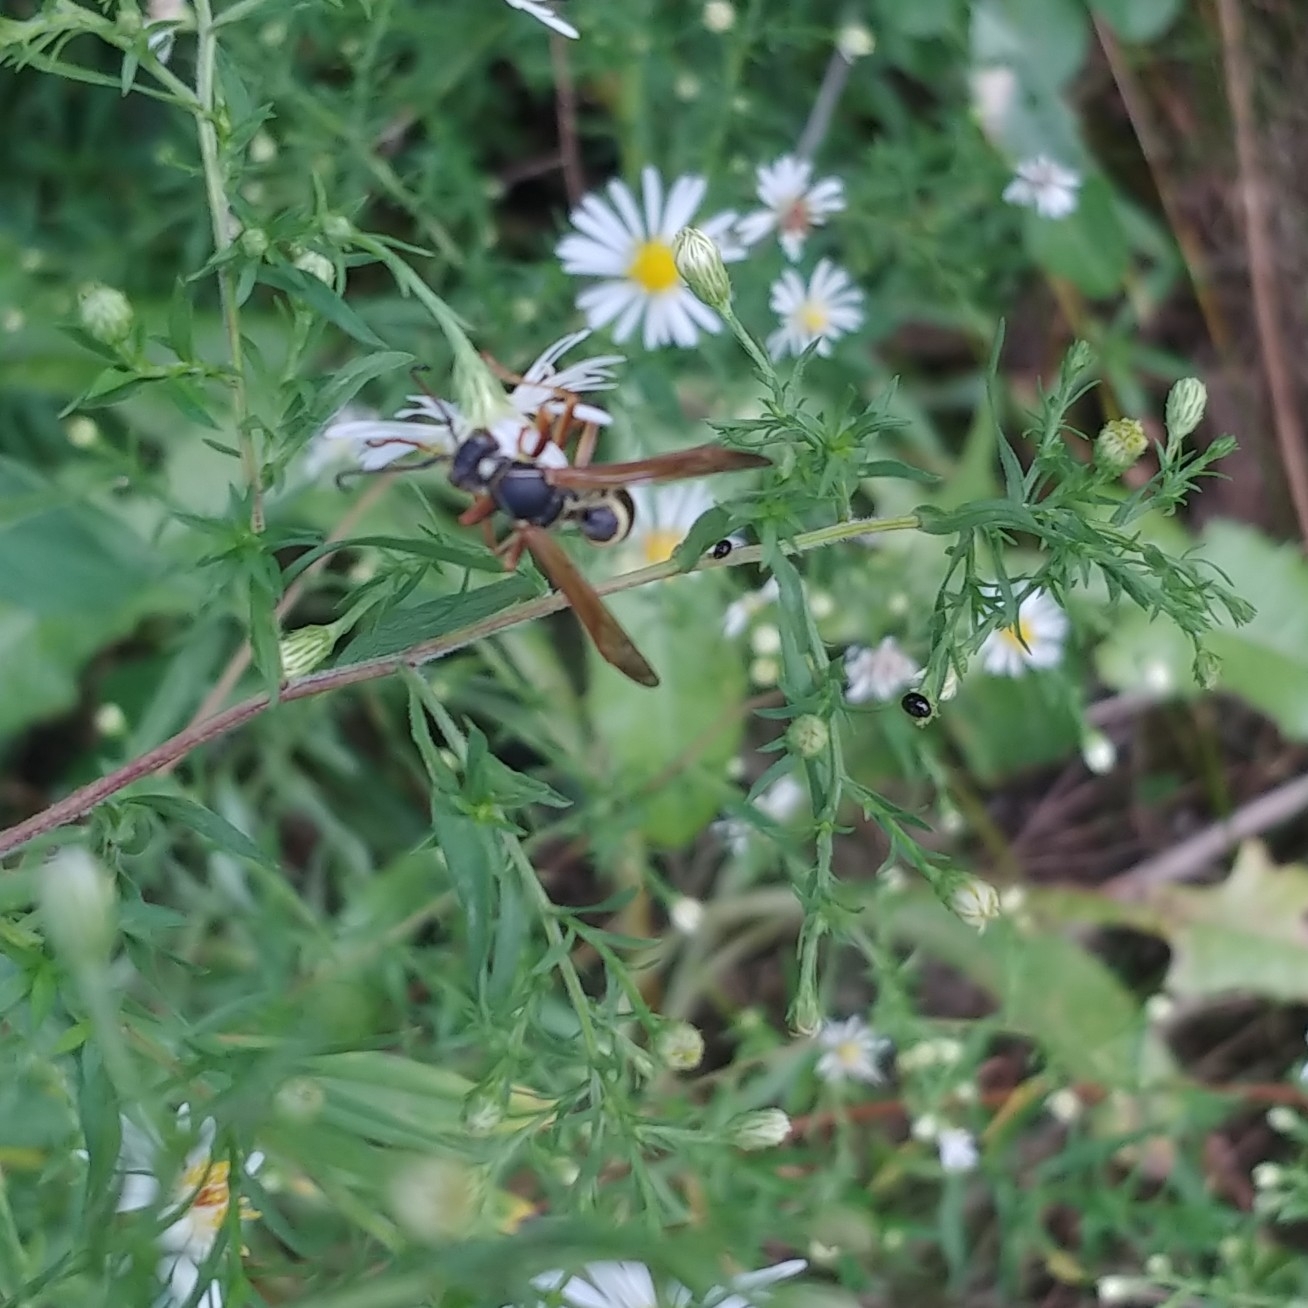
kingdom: Animalia
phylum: Arthropoda
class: Insecta
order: Hymenoptera
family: Eumenidae
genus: Polistes
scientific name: Polistes fuscatus
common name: Dark paper wasp
